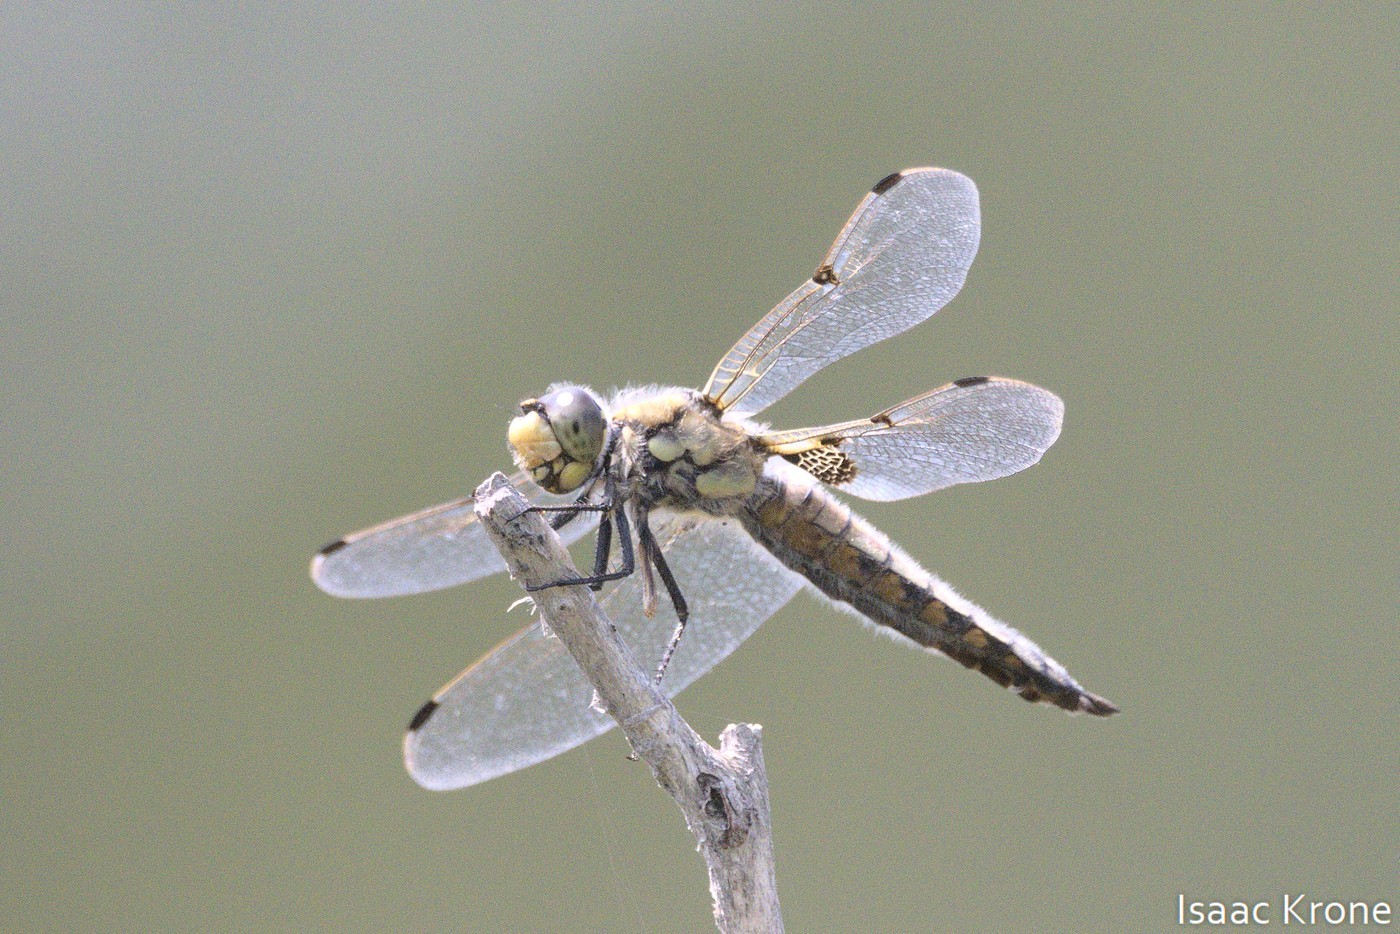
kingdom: Animalia
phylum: Arthropoda
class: Insecta
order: Odonata
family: Libellulidae
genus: Libellula
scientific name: Libellula quadrimaculata
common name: Four-spotted chaser
